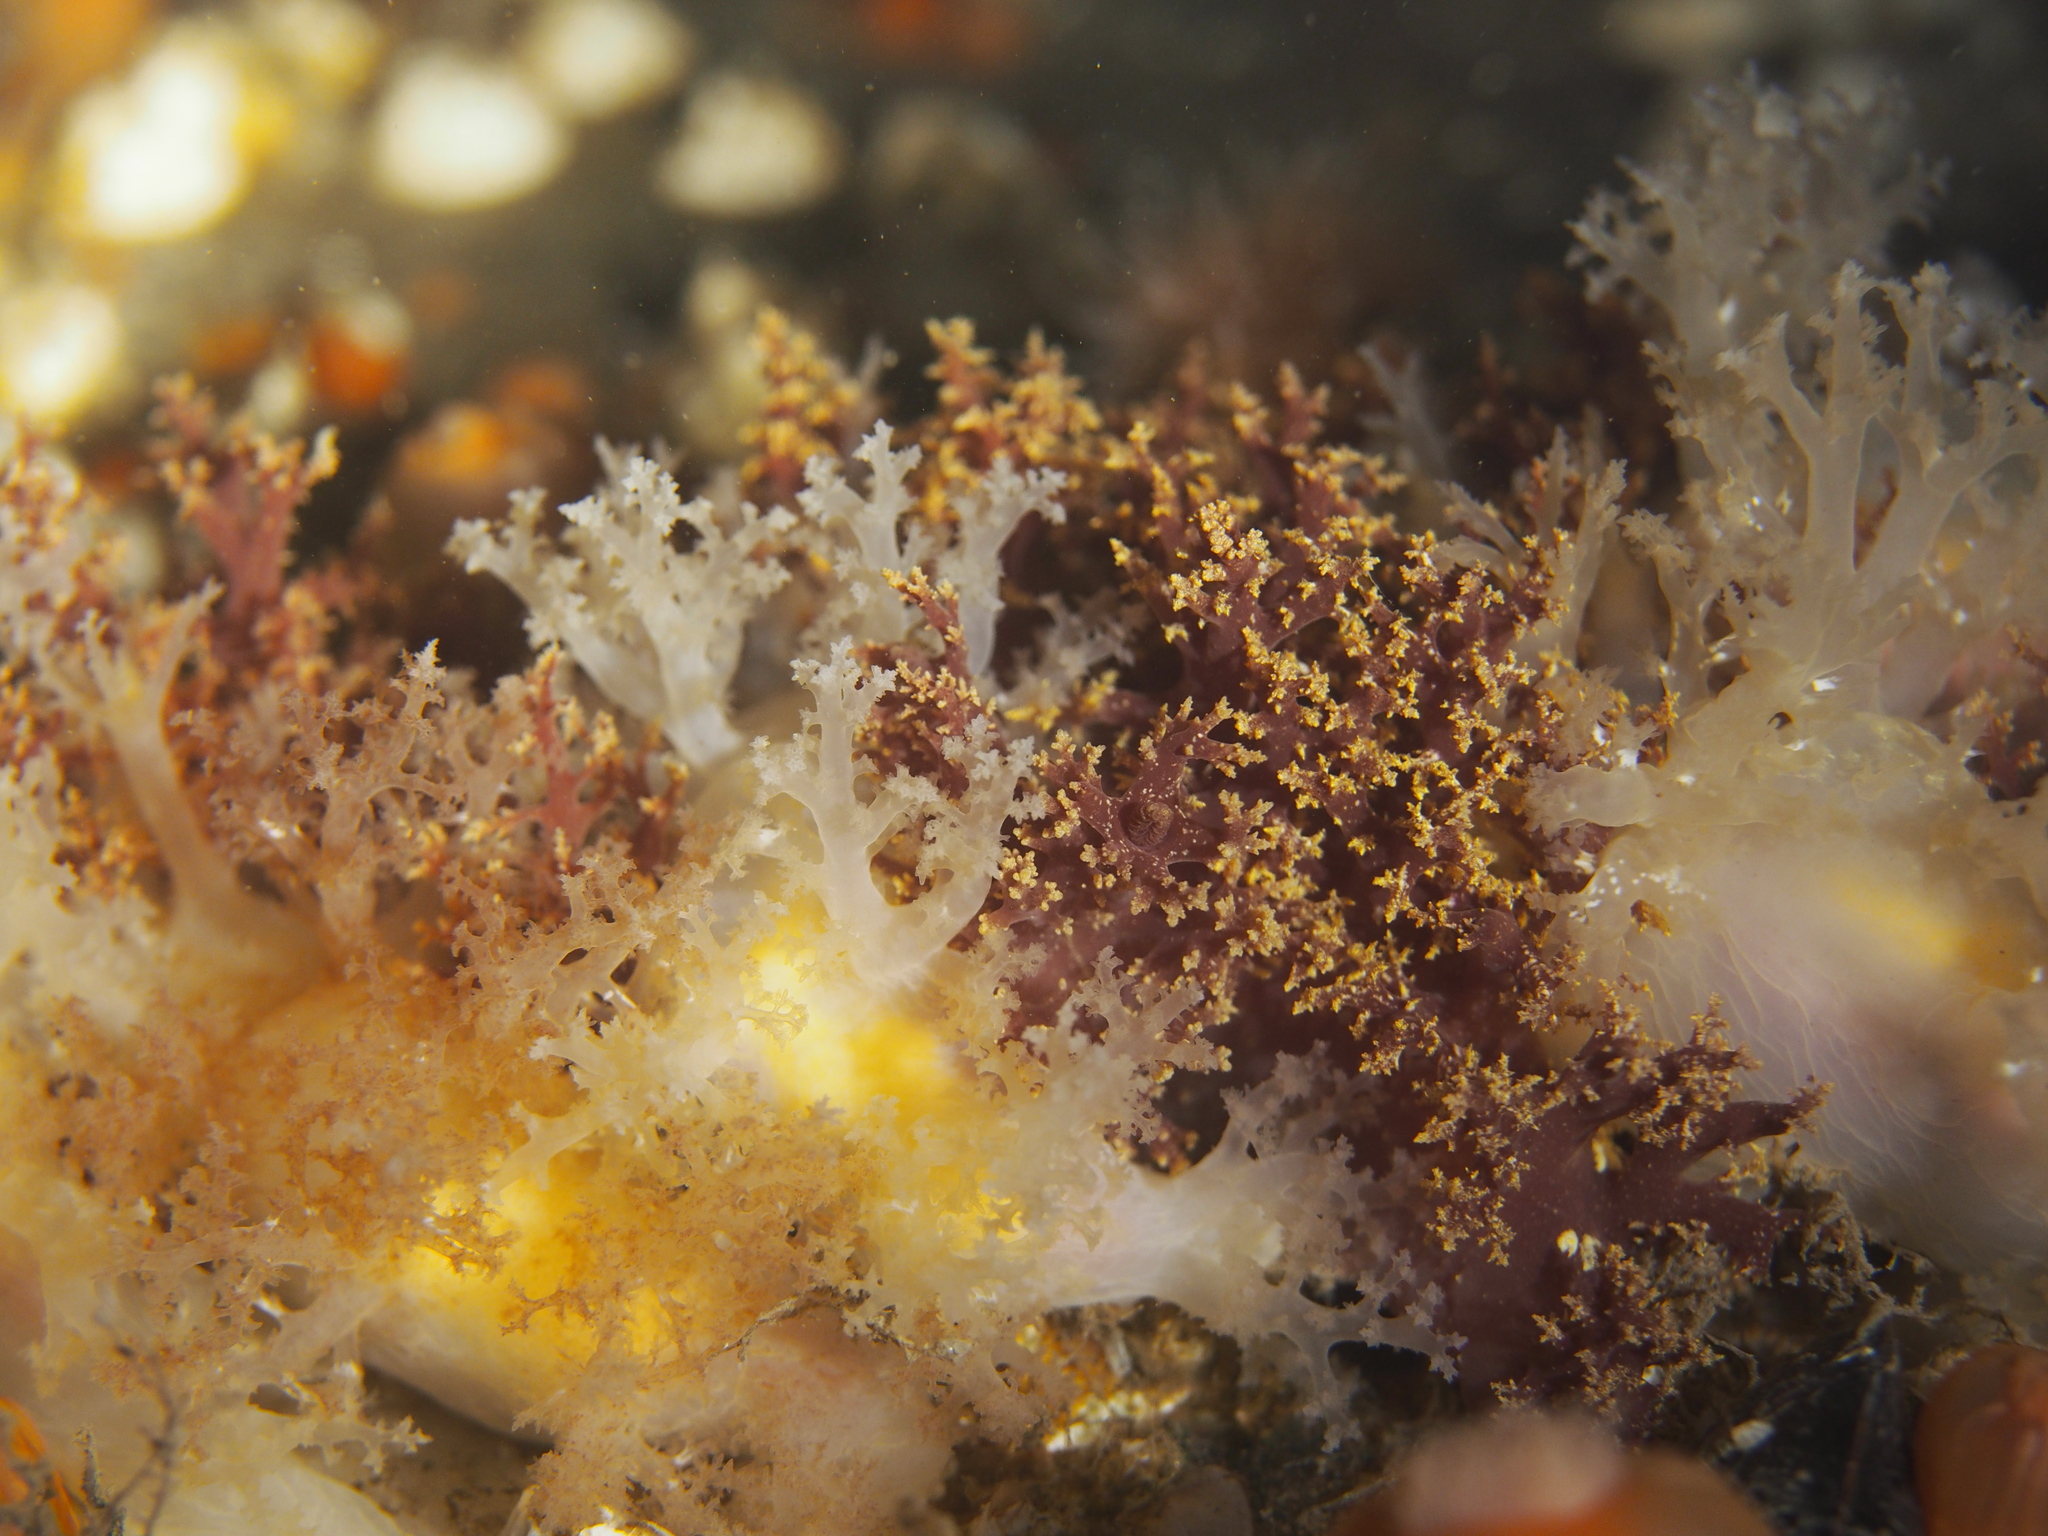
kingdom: Animalia
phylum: Mollusca
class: Gastropoda
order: Nudibranchia
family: Dendronotidae
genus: Dendronotus
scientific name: Dendronotus lacteus
